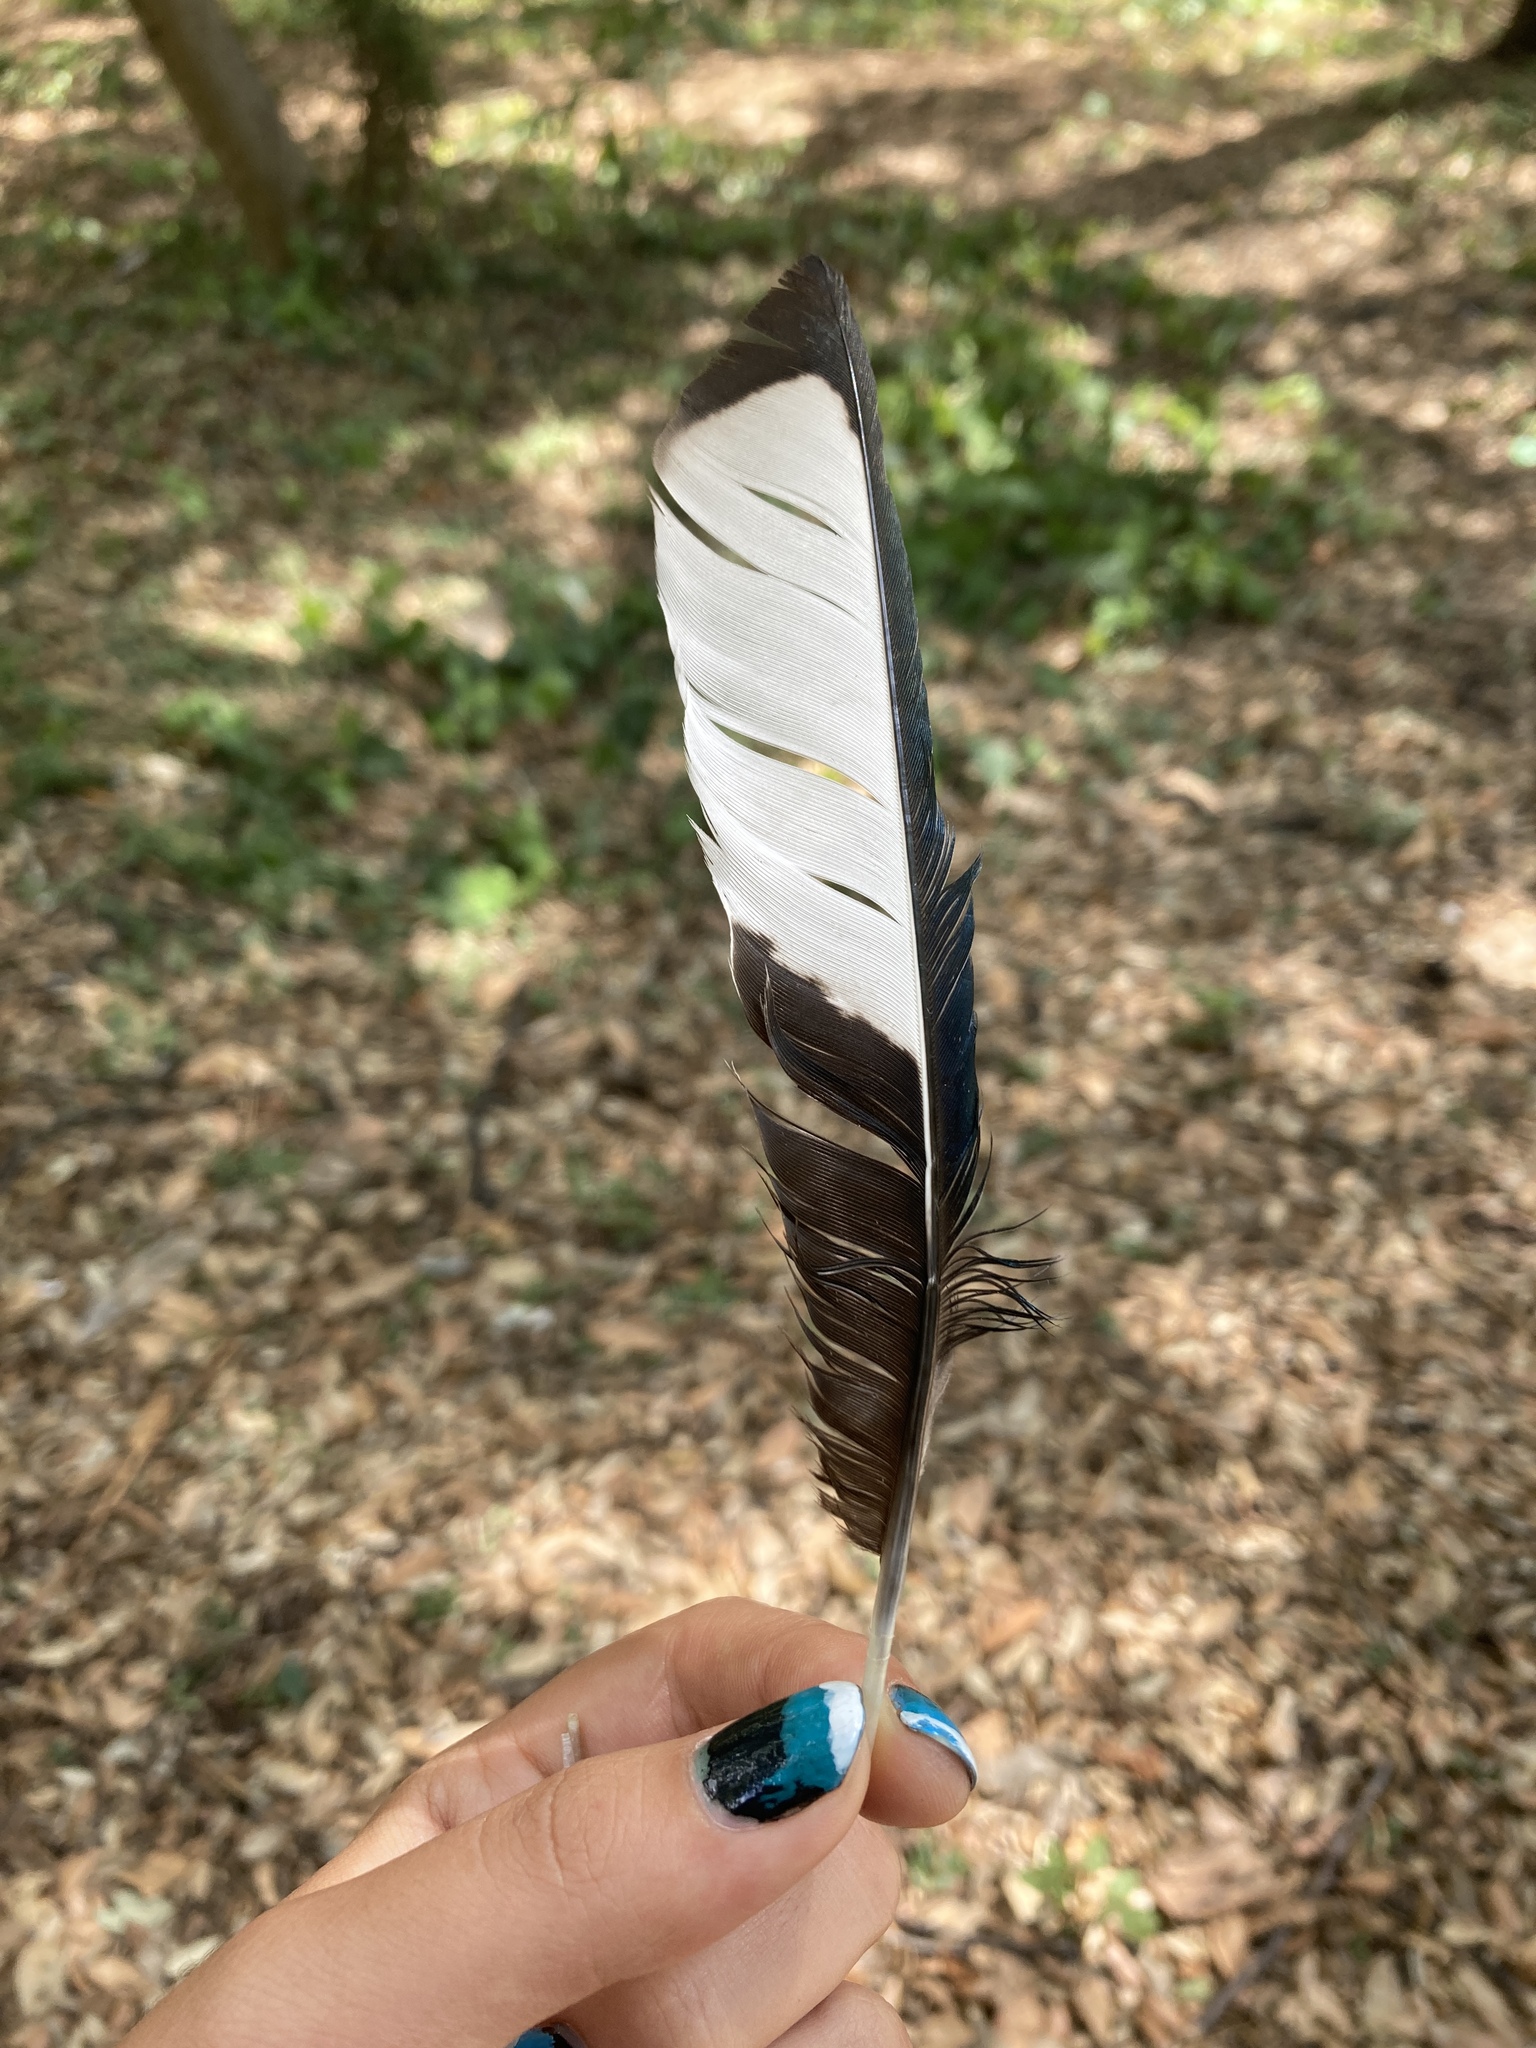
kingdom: Animalia
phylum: Chordata
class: Aves
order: Passeriformes
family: Corvidae
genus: Pica
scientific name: Pica pica
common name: Eurasian magpie
